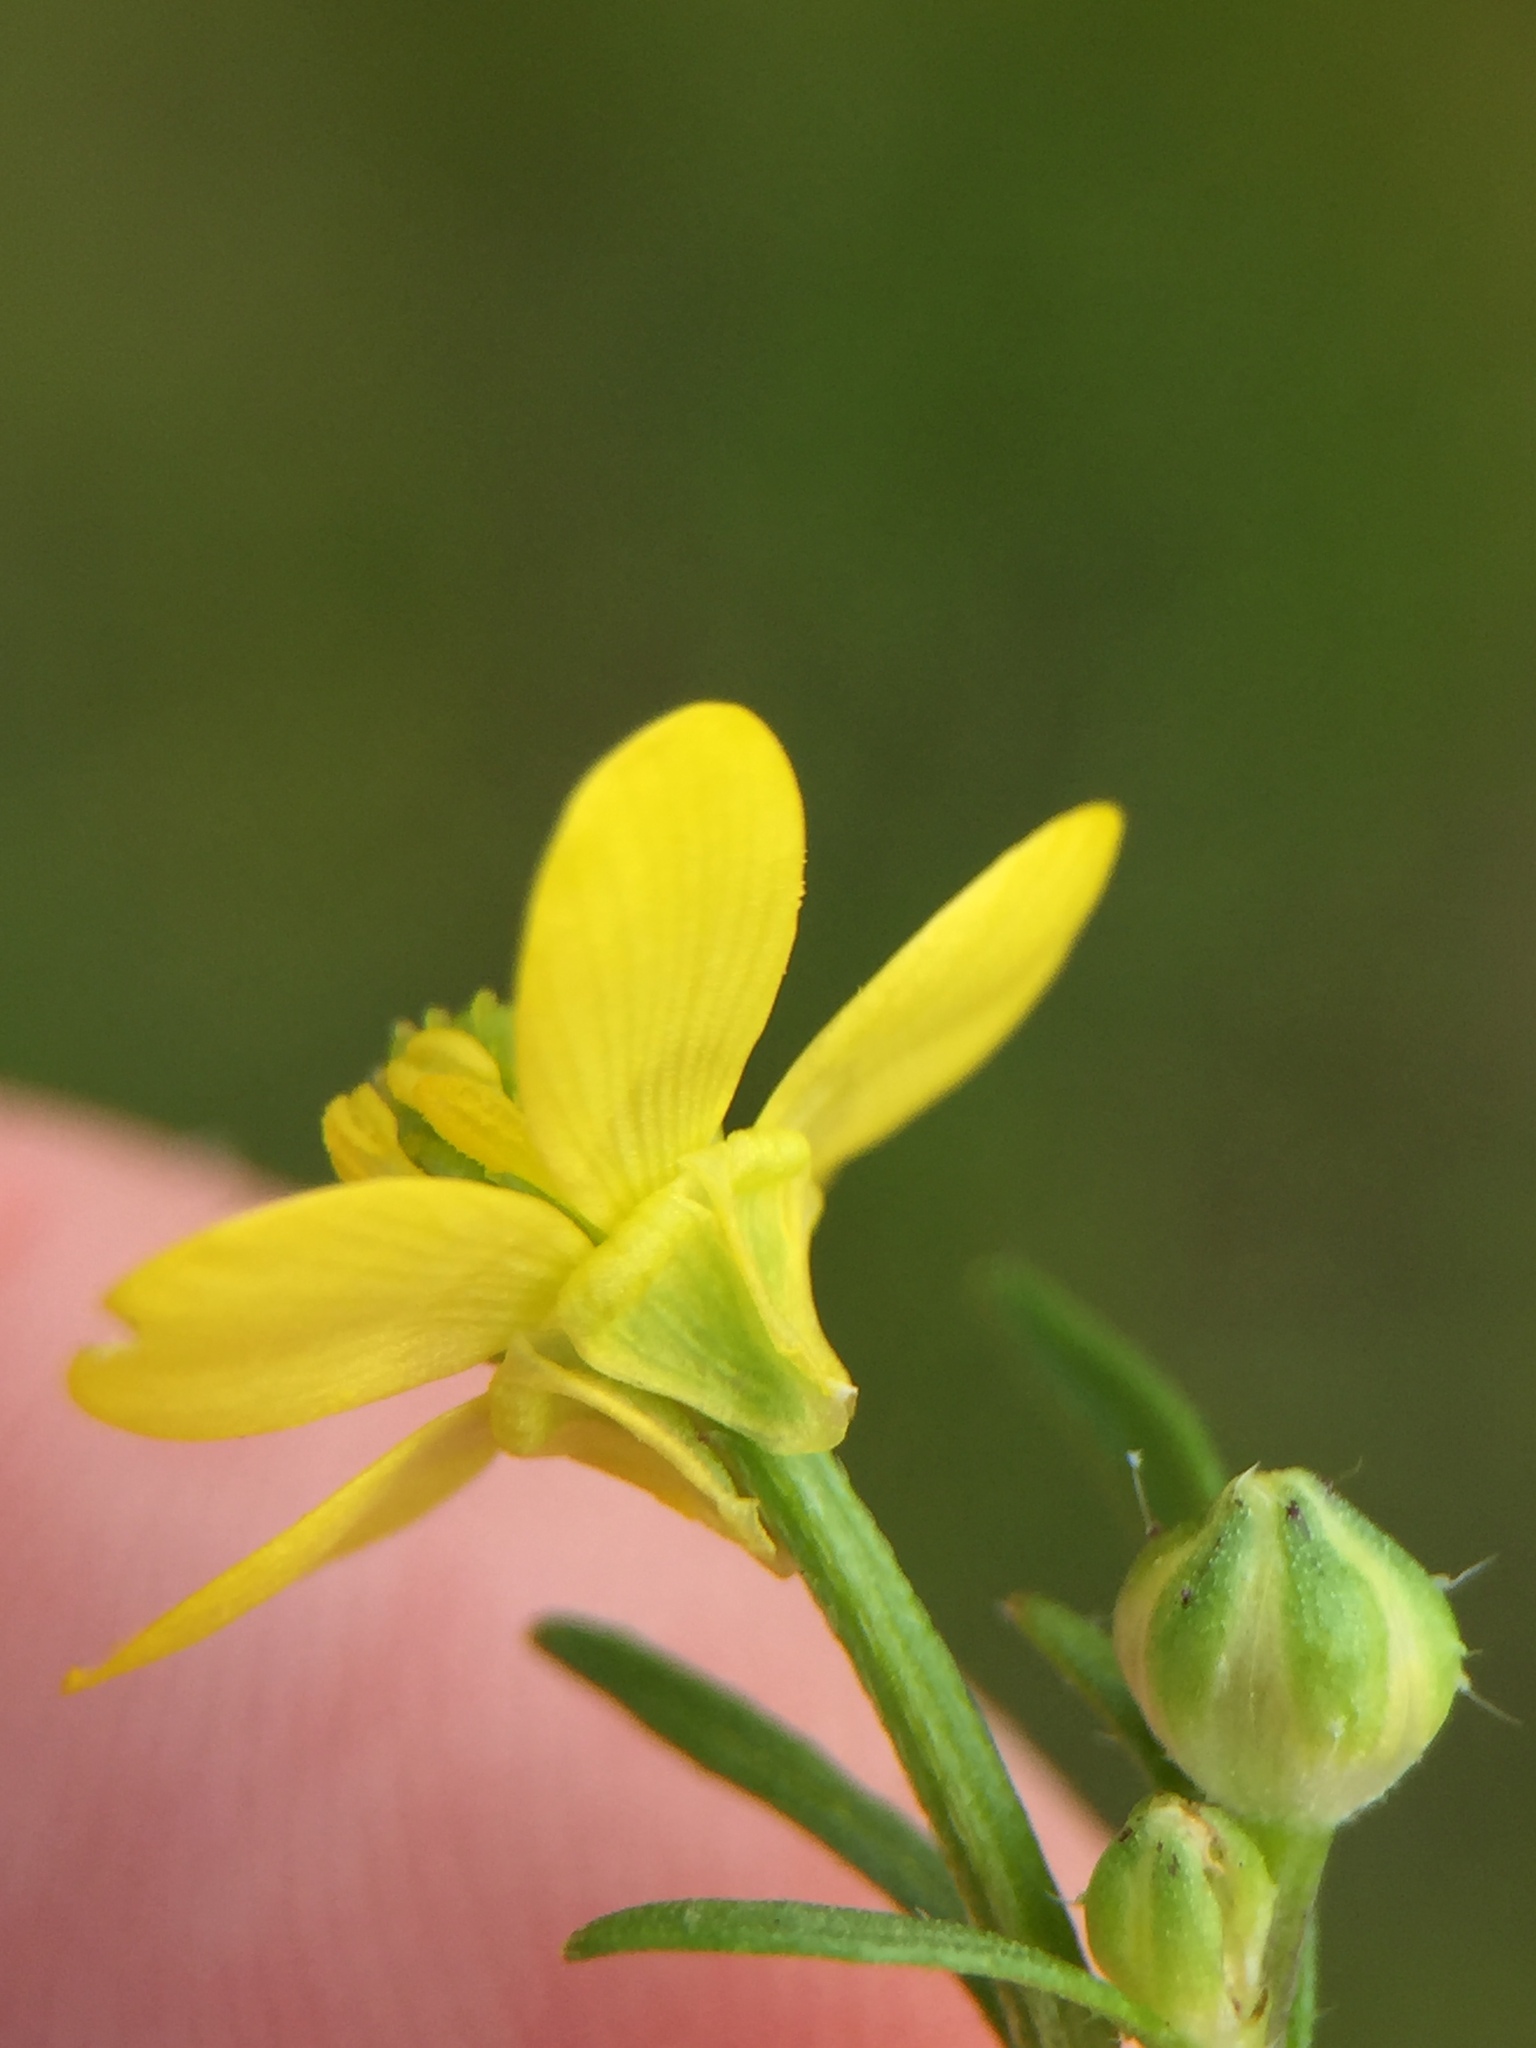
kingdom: Plantae
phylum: Tracheophyta
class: Magnoliopsida
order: Ranunculales
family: Ranunculaceae
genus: Ranunculus
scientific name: Ranunculus trilobus
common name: Threelobe buttercup
